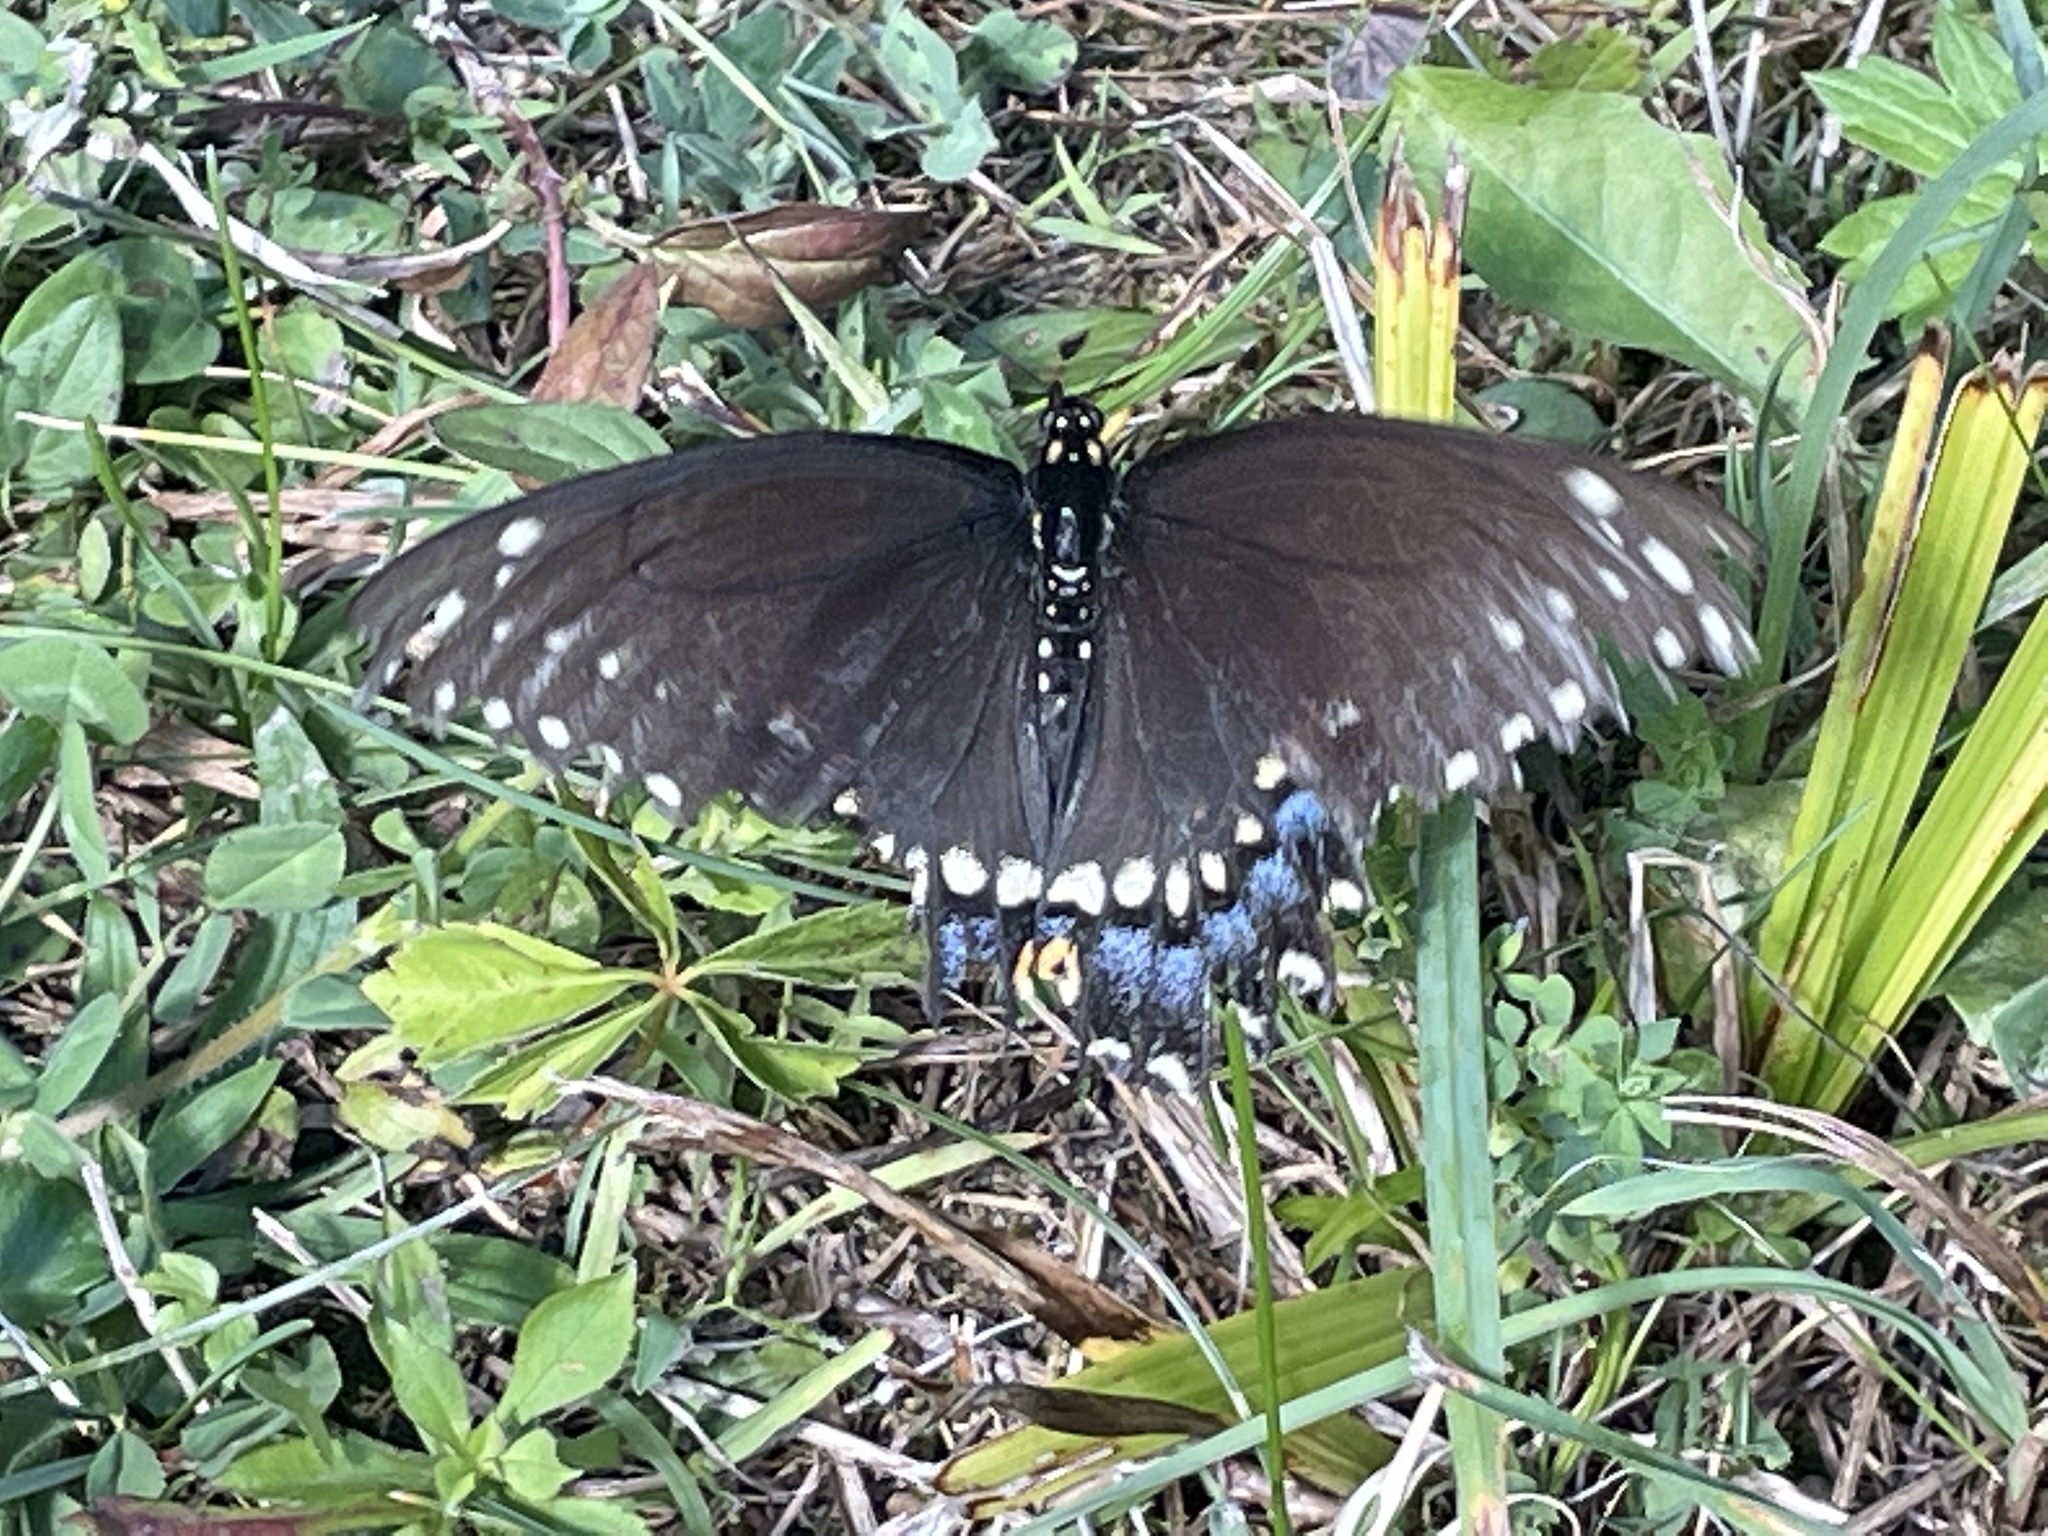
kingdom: Animalia
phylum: Arthropoda
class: Insecta
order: Lepidoptera
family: Papilionidae
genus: Papilio
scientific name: Papilio polyxenes
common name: Black swallowtail
